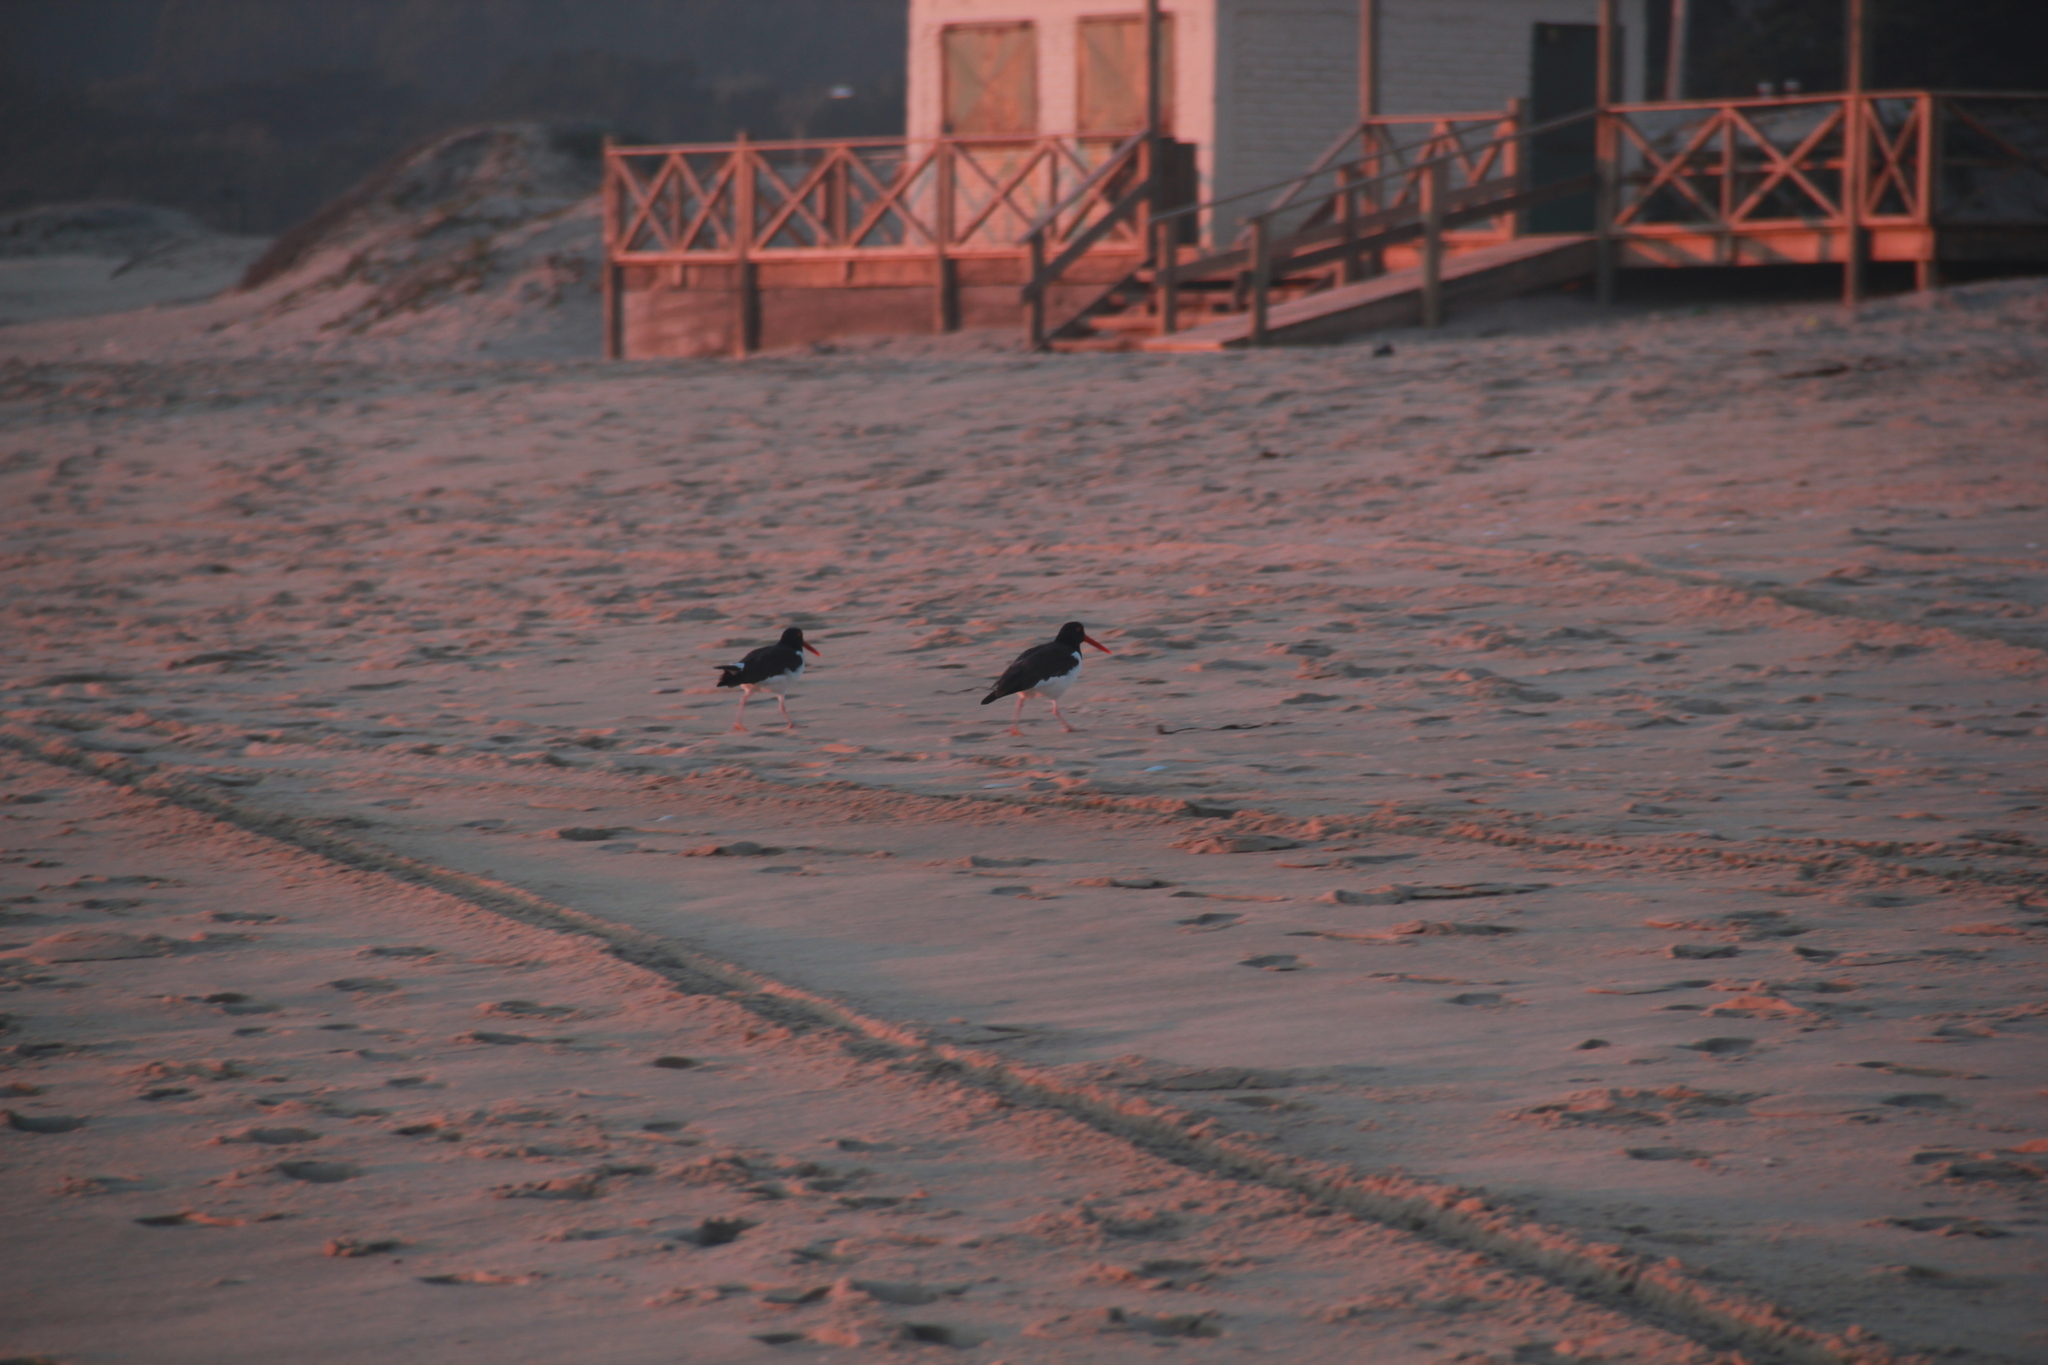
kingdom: Animalia
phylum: Chordata
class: Aves
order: Charadriiformes
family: Haematopodidae
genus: Haematopus
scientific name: Haematopus palliatus
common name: American oystercatcher
